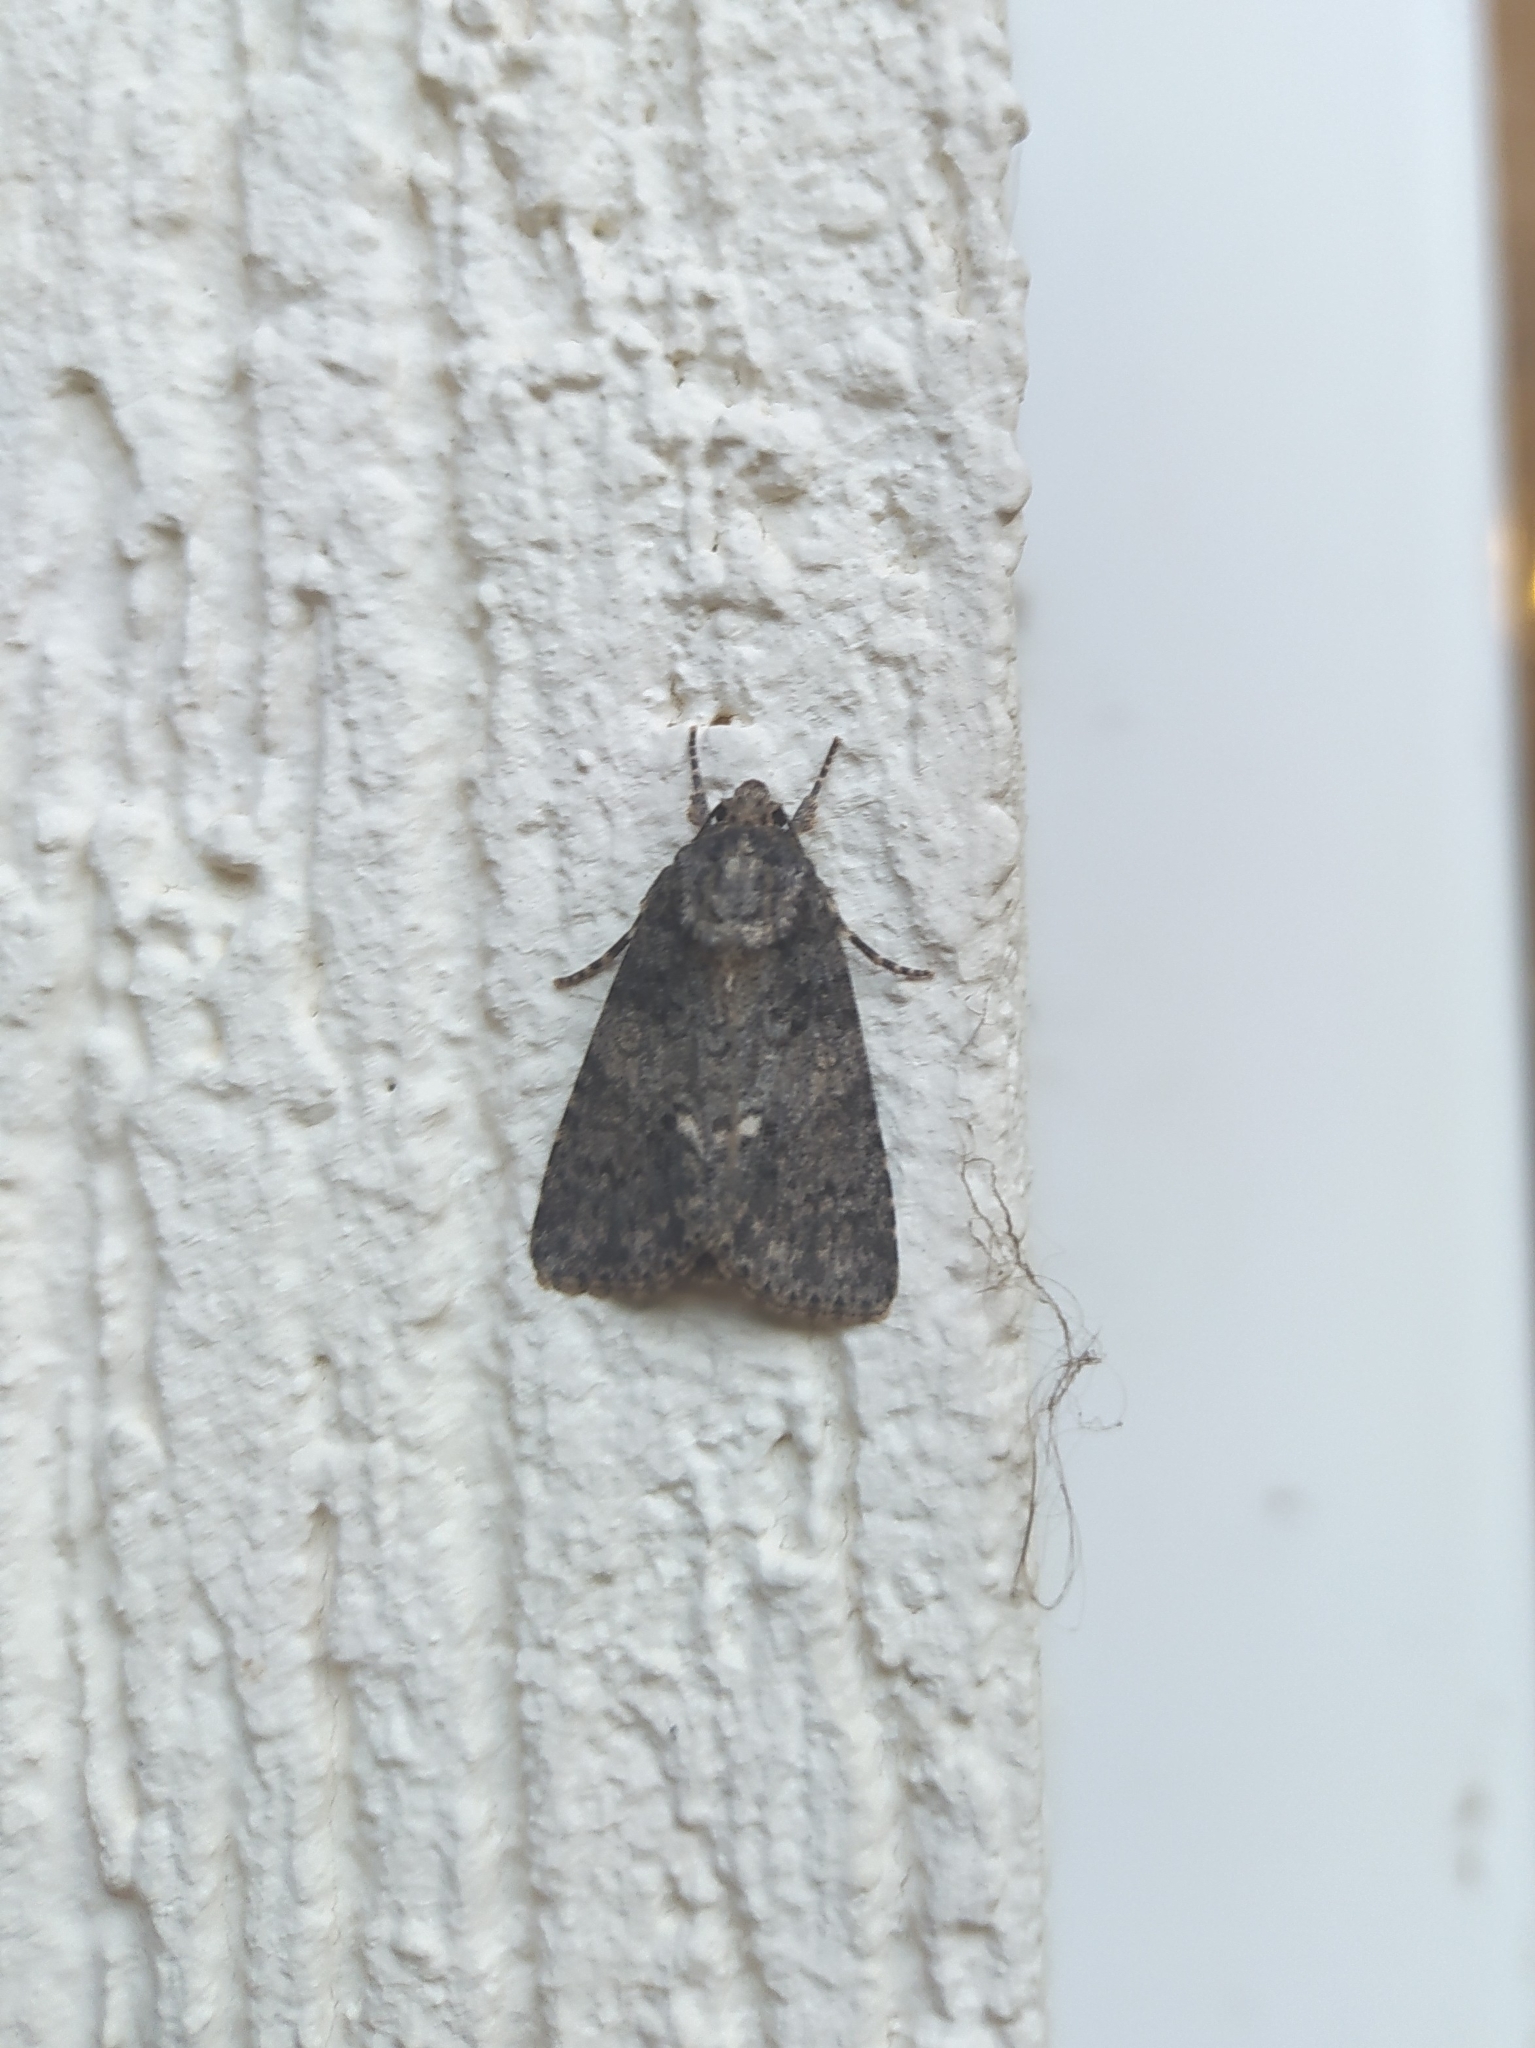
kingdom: Animalia
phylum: Arthropoda
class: Insecta
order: Lepidoptera
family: Noctuidae
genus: Acronicta
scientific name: Acronicta rumicis
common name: Knot grass
